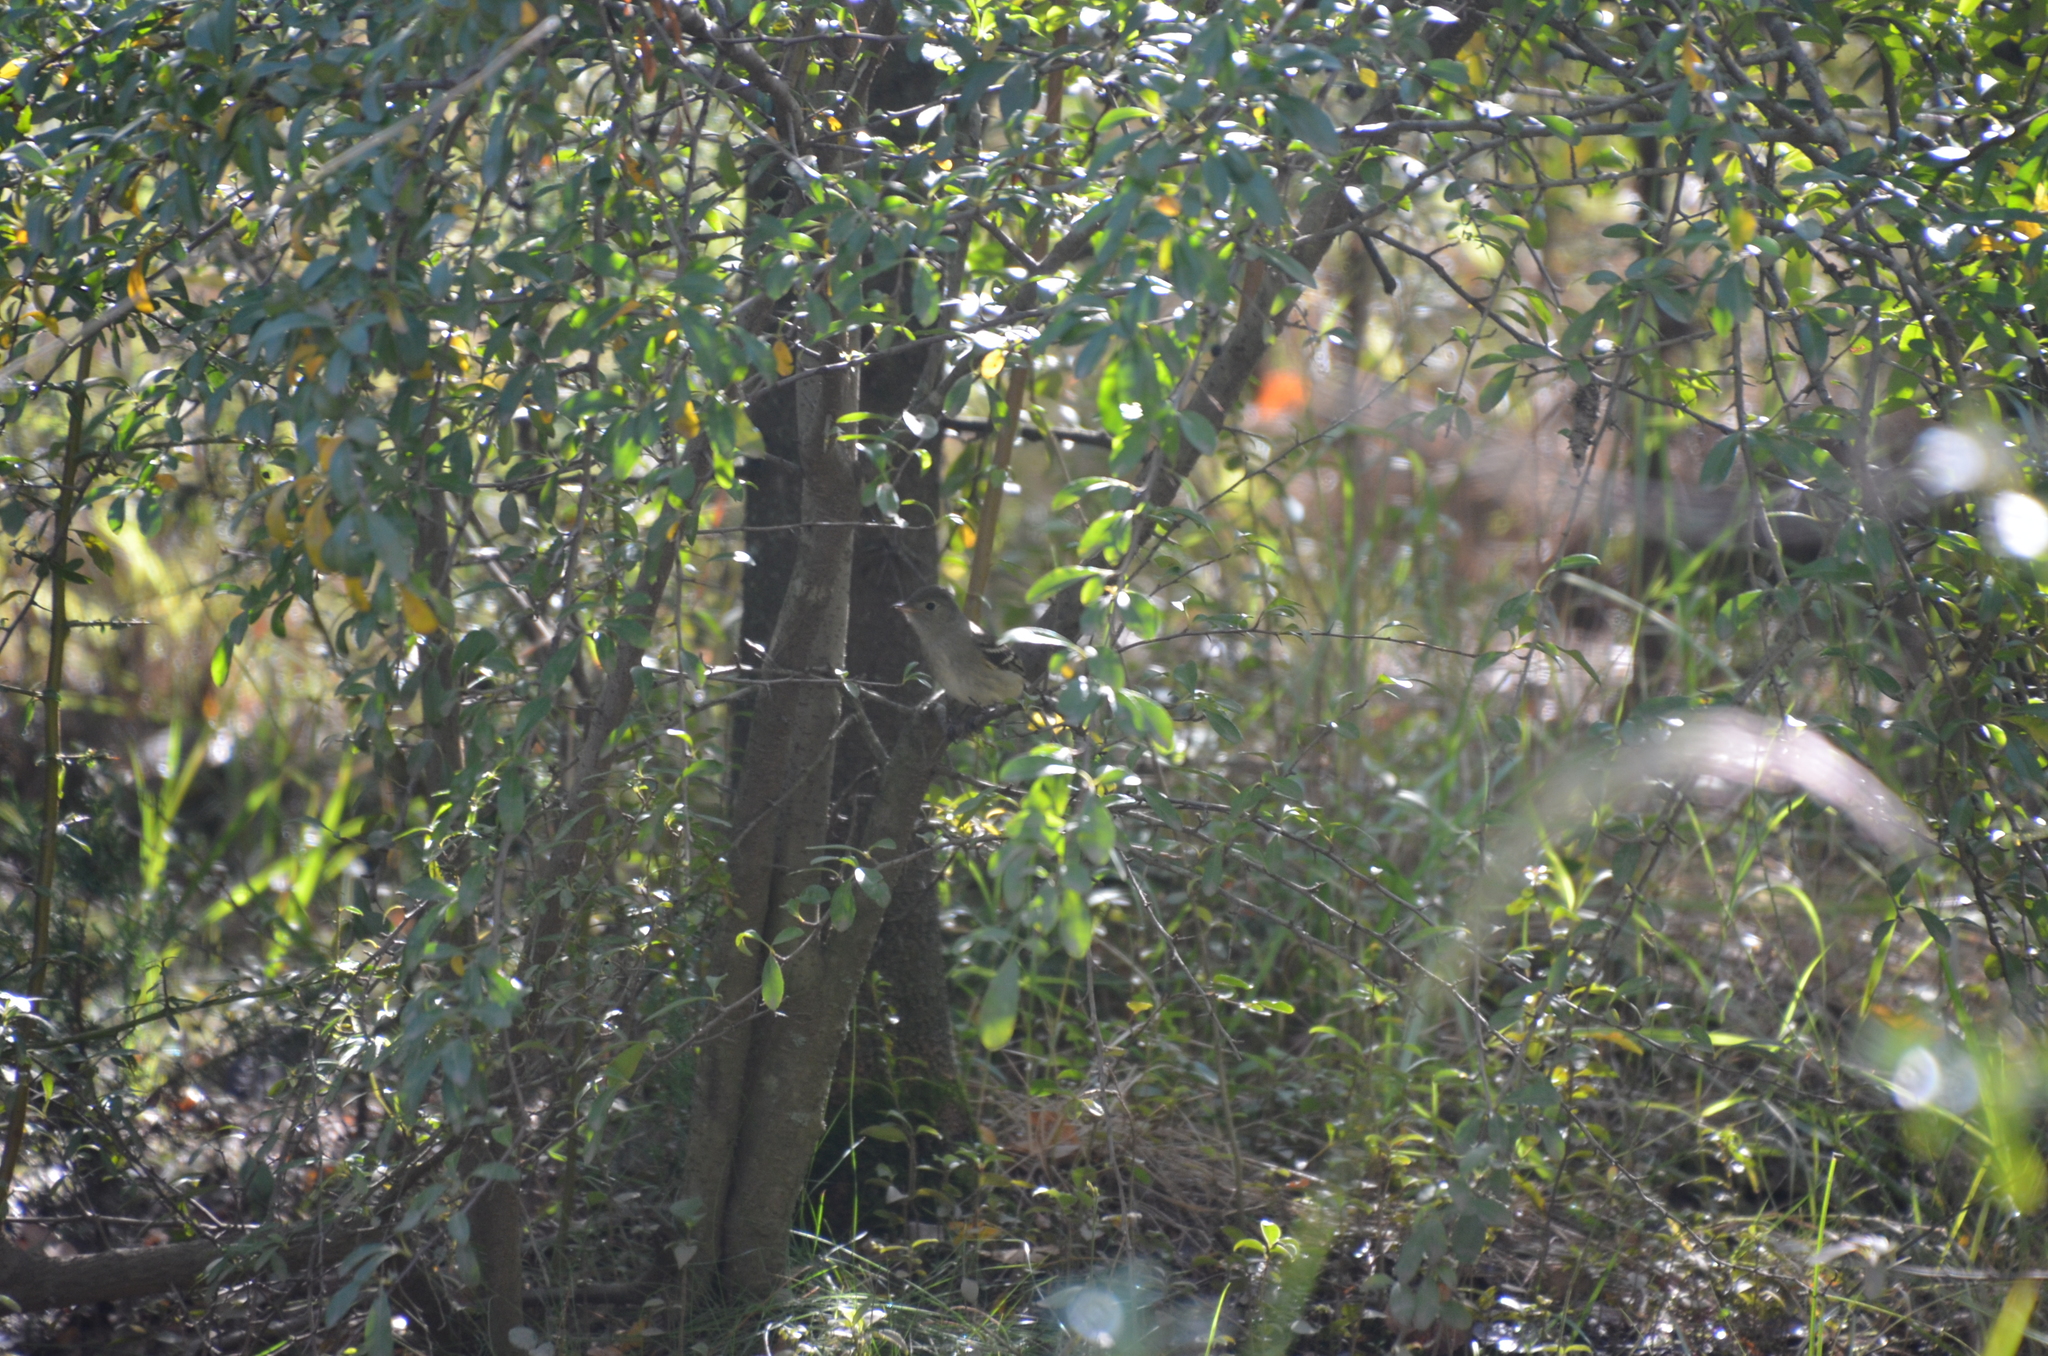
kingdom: Animalia
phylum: Chordata
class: Aves
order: Passeriformes
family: Tyrannidae
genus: Elaenia
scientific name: Elaenia parvirostris
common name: Small-billed elaenia
